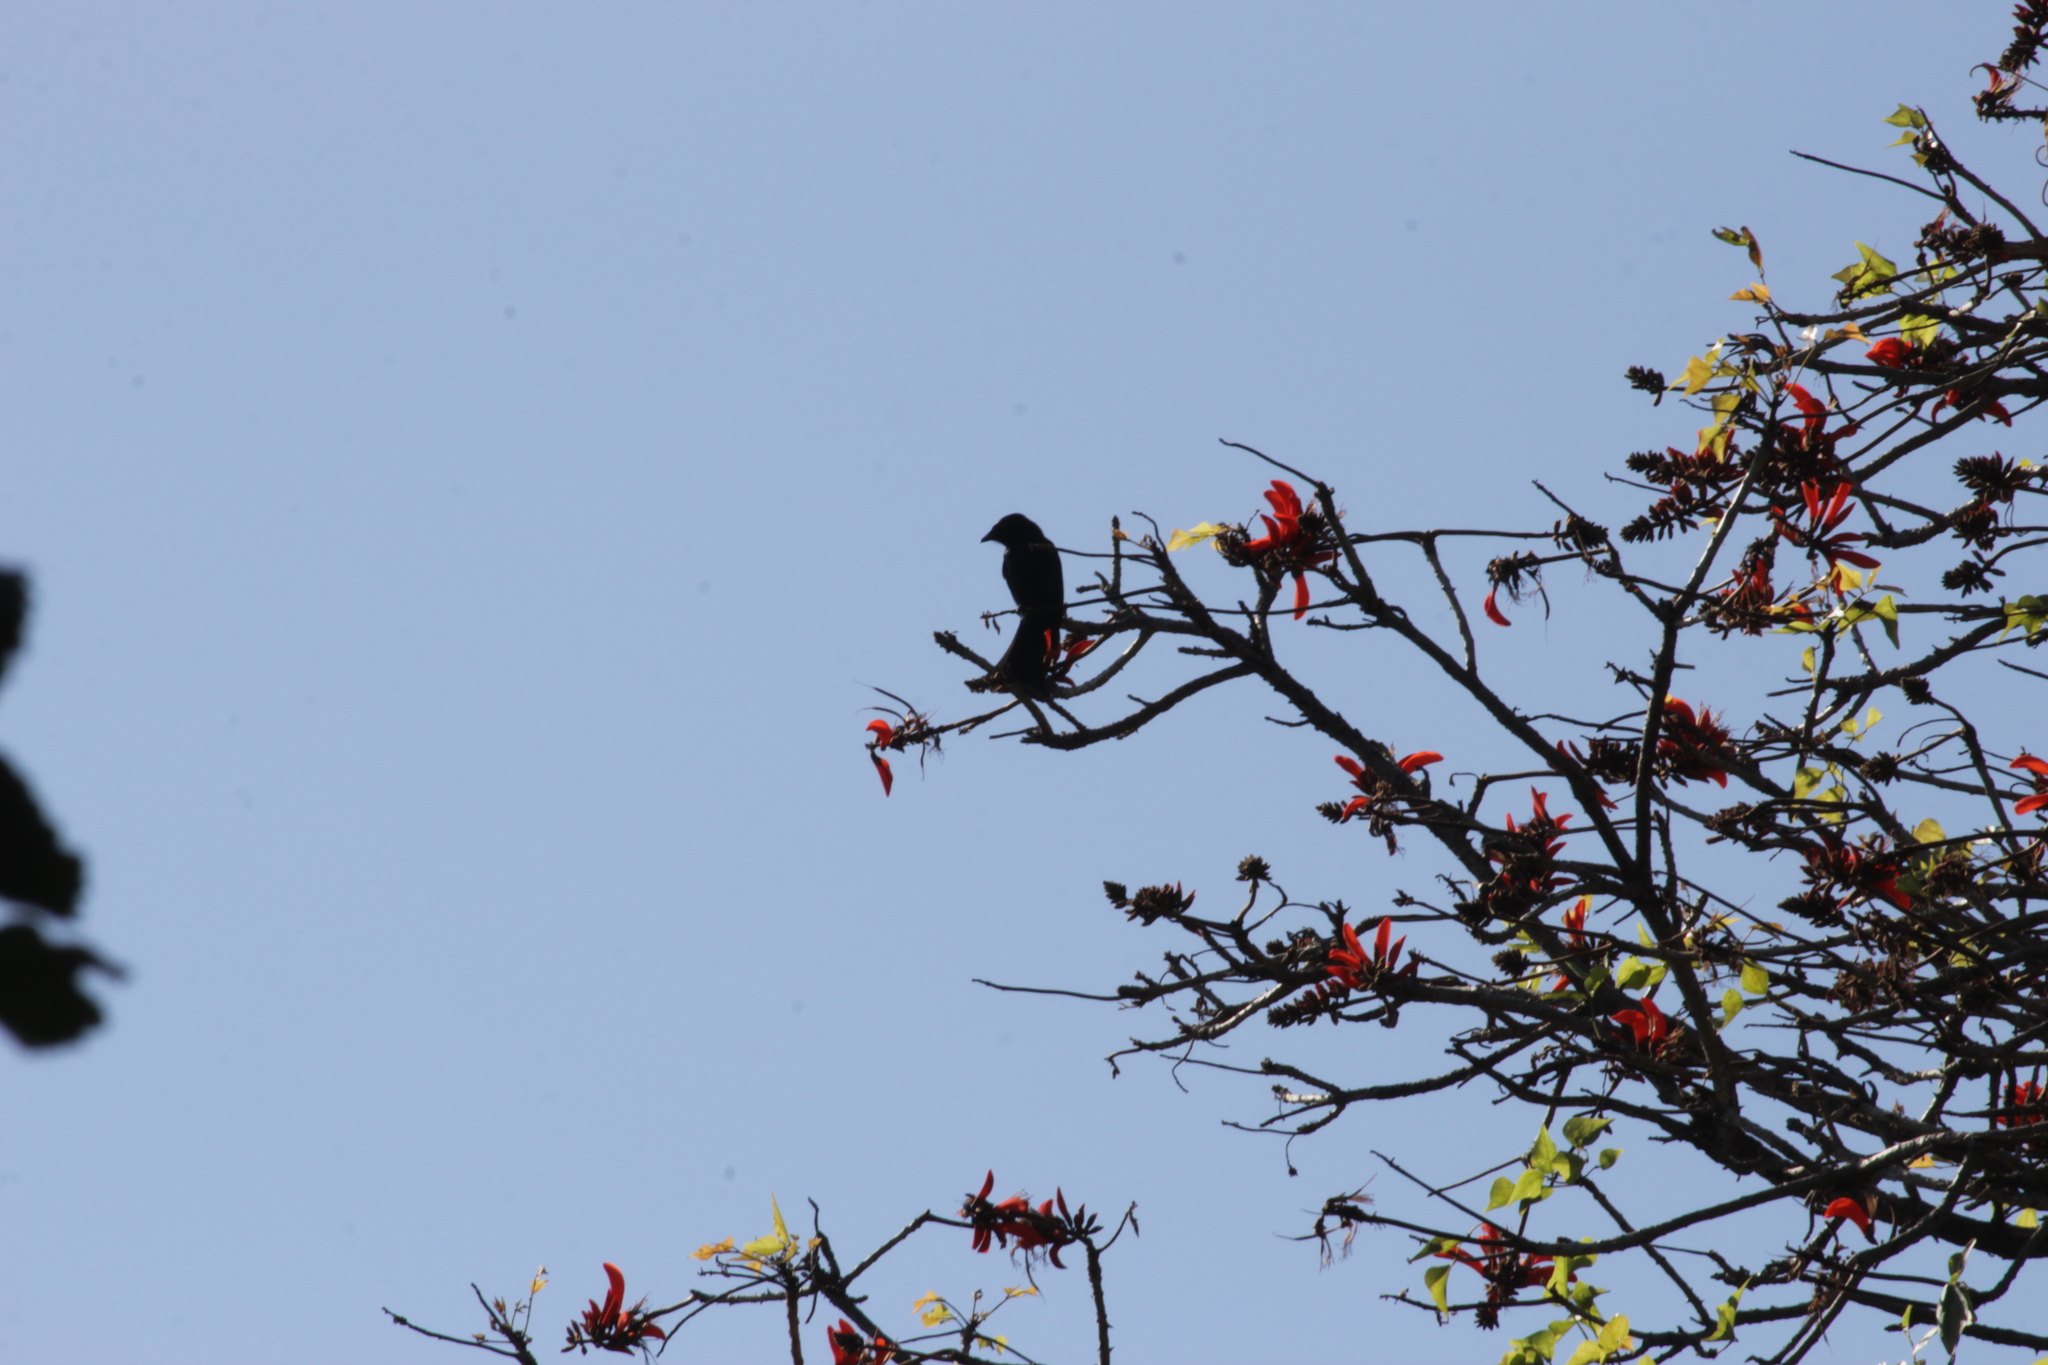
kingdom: Animalia
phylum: Chordata
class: Aves
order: Passeriformes
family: Dicruridae
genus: Dicrurus
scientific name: Dicrurus ludwigii
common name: Square-tailed drongo
